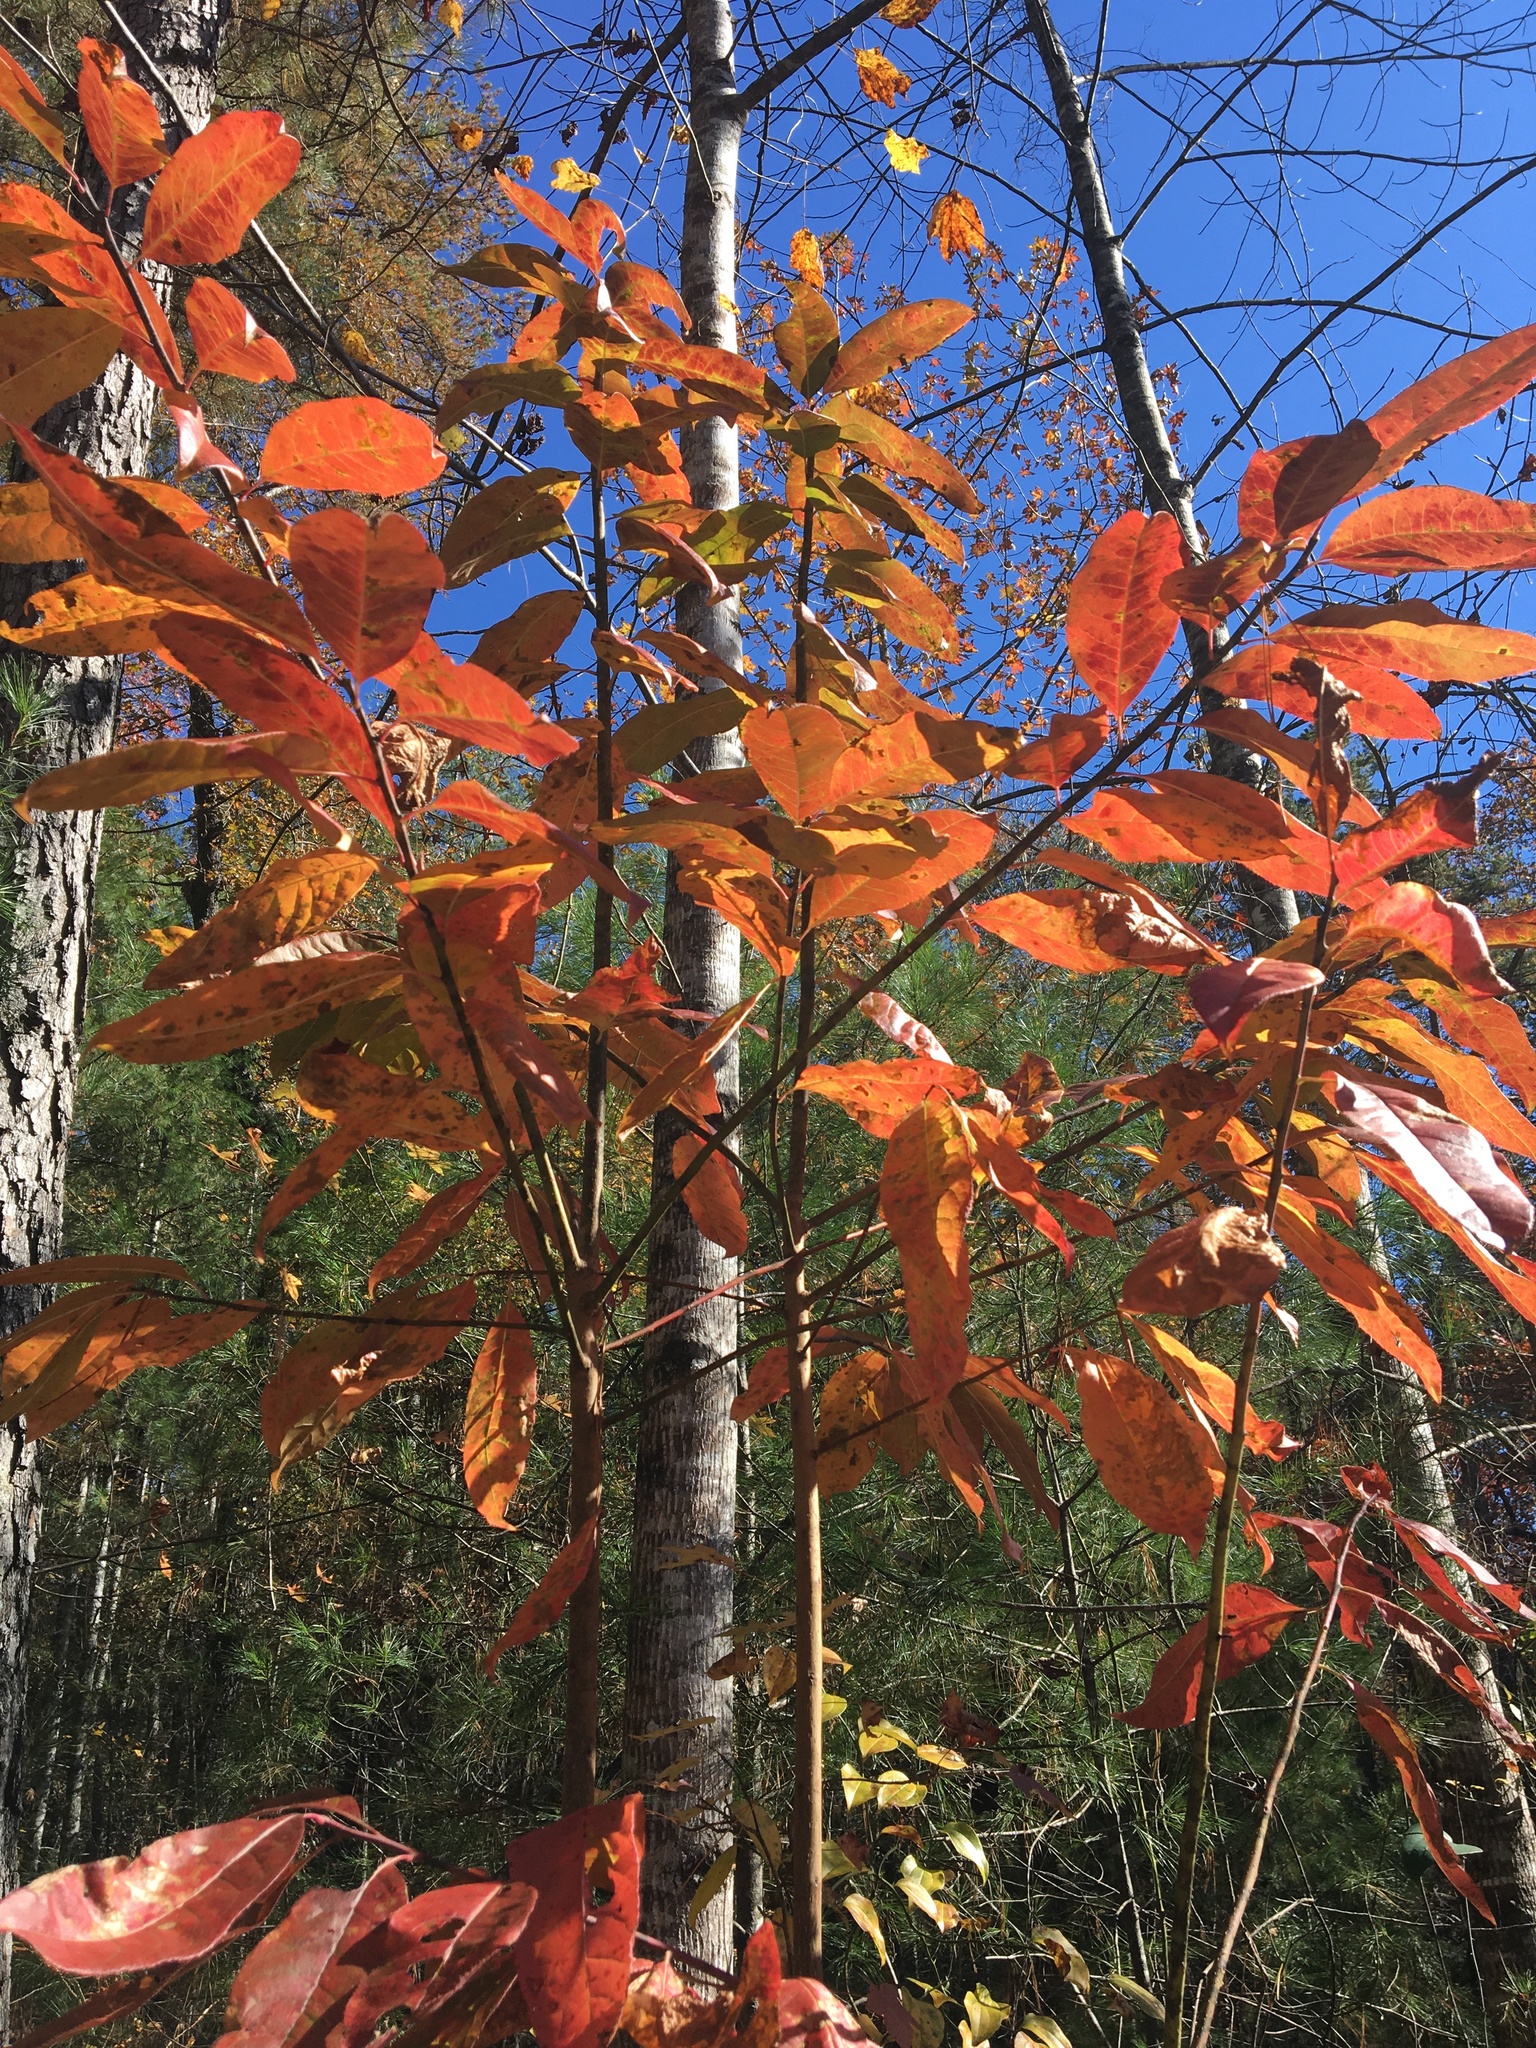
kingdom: Plantae
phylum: Tracheophyta
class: Magnoliopsida
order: Ericales
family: Ericaceae
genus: Oxydendrum
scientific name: Oxydendrum arboreum
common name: Sourwood
